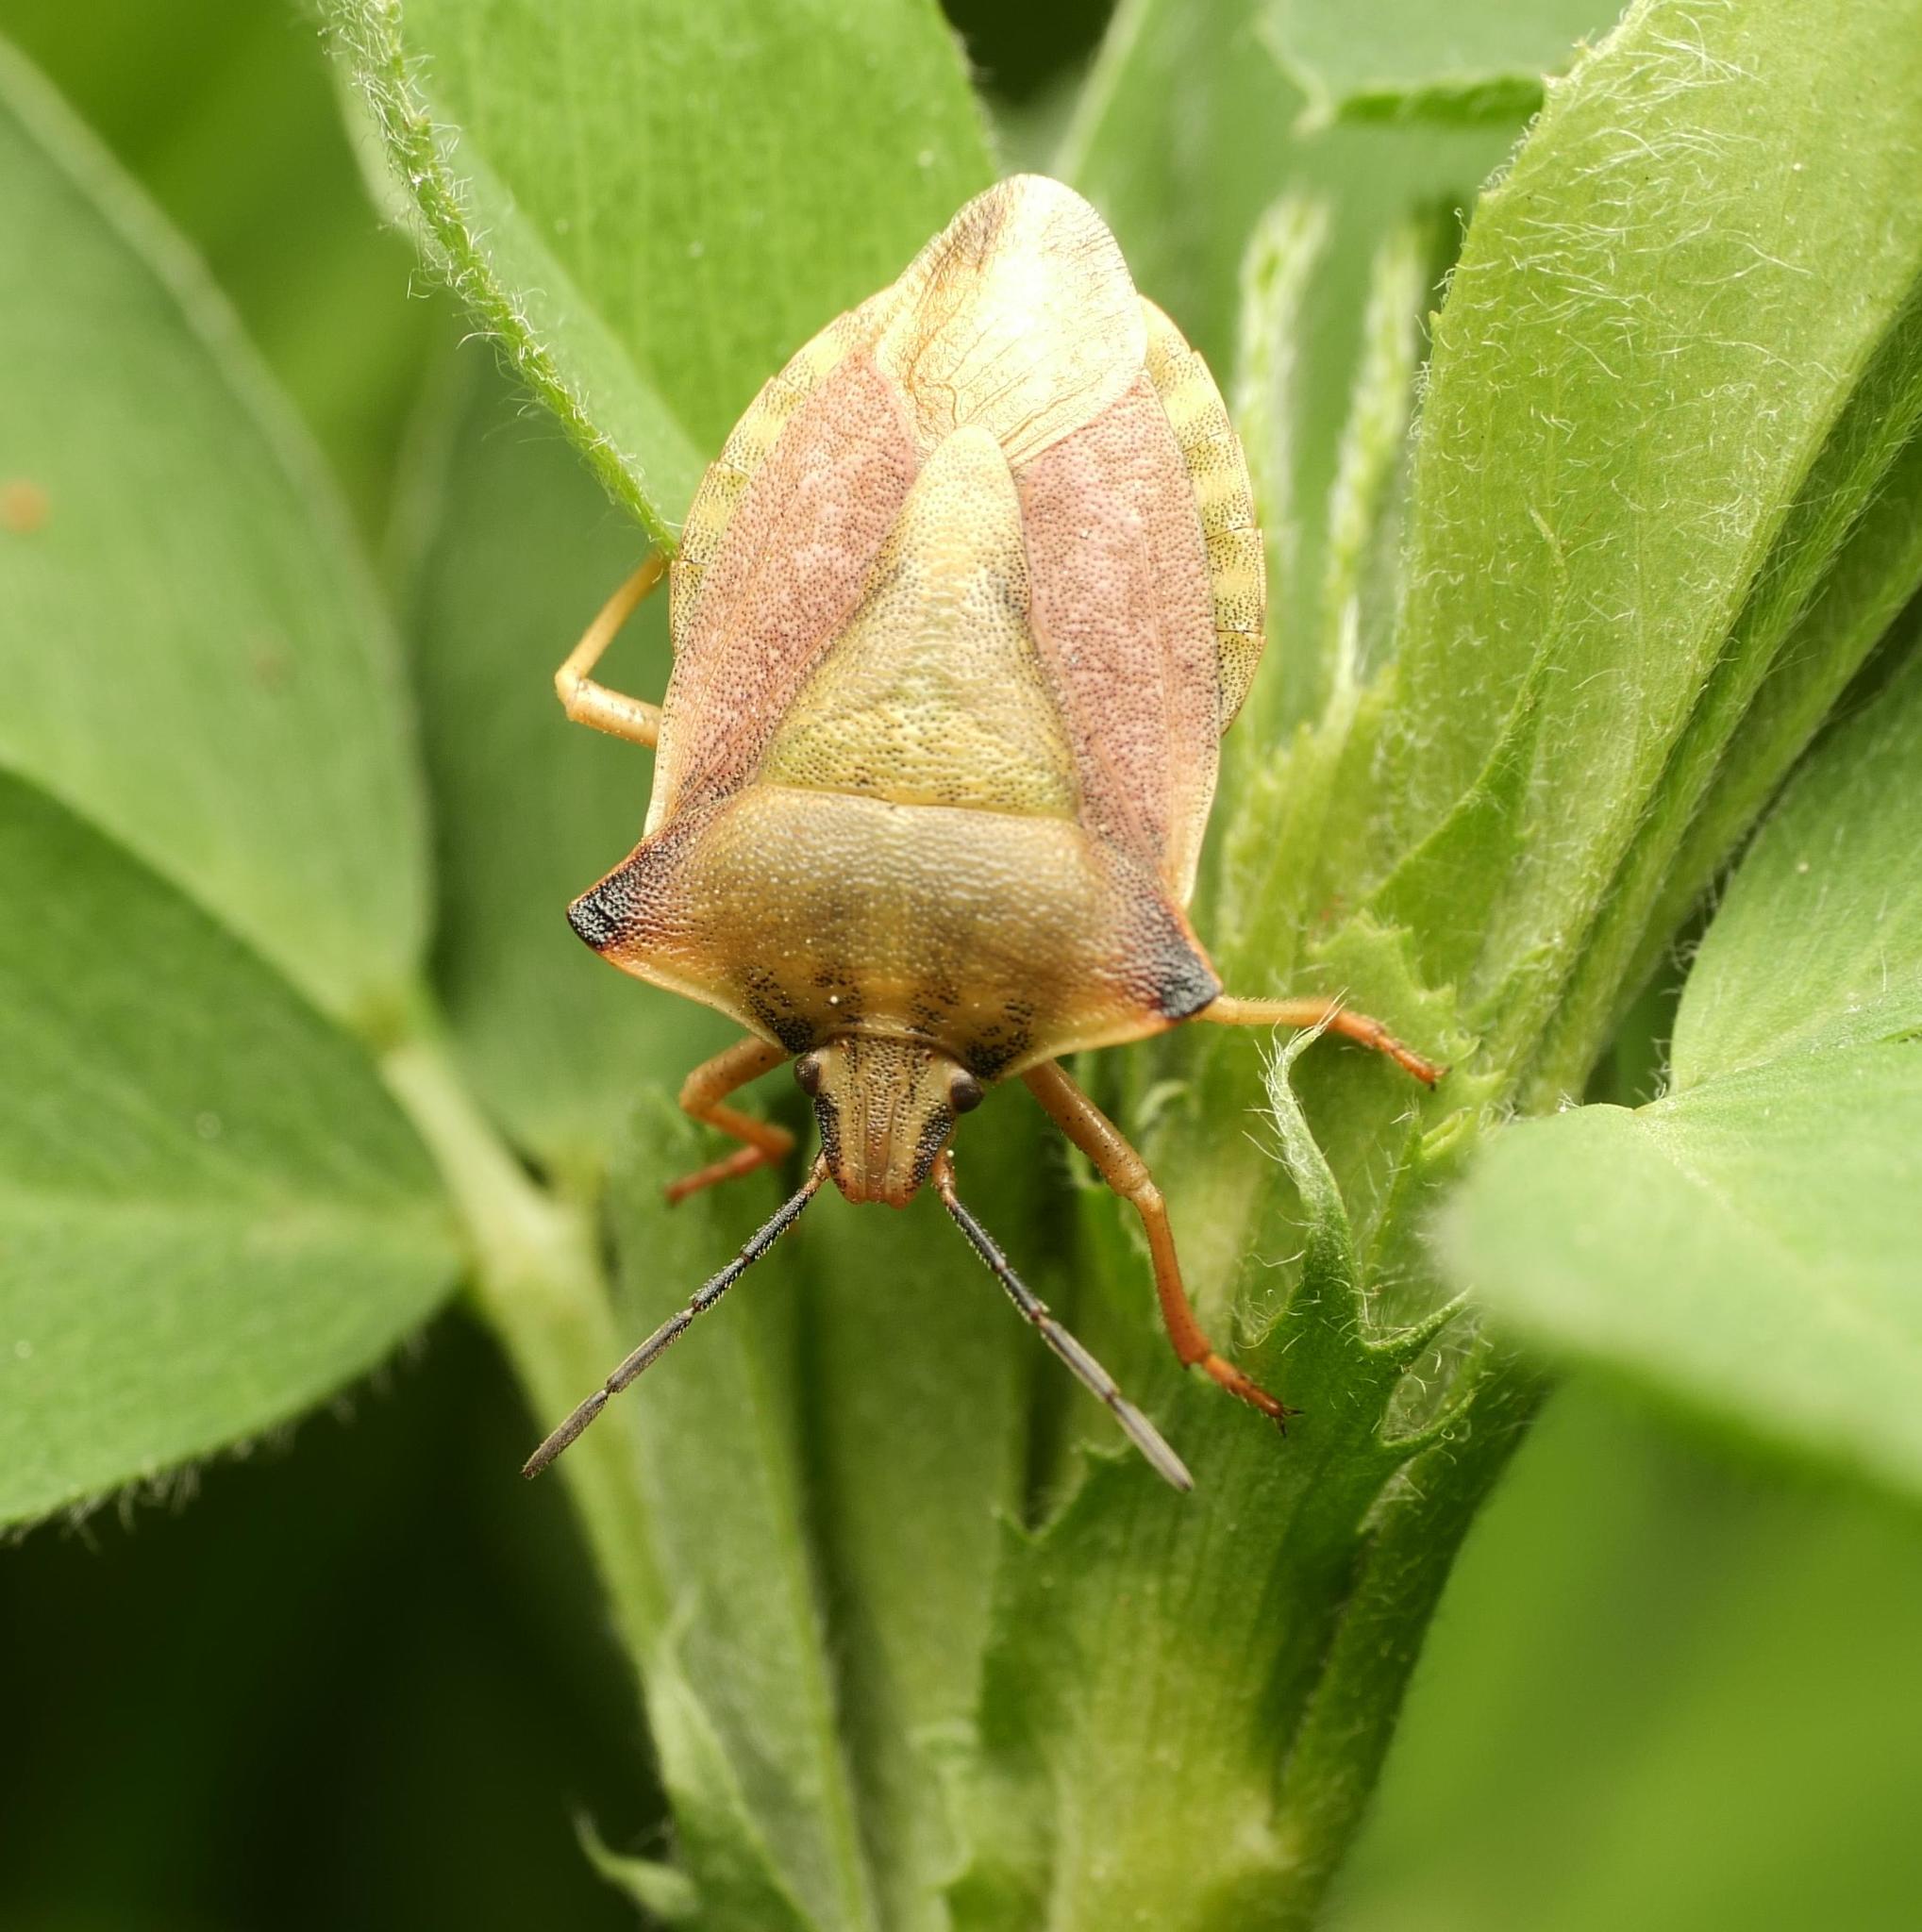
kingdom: Animalia
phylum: Arthropoda
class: Insecta
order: Hemiptera
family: Pentatomidae
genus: Carpocoris
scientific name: Carpocoris fuscispinus
